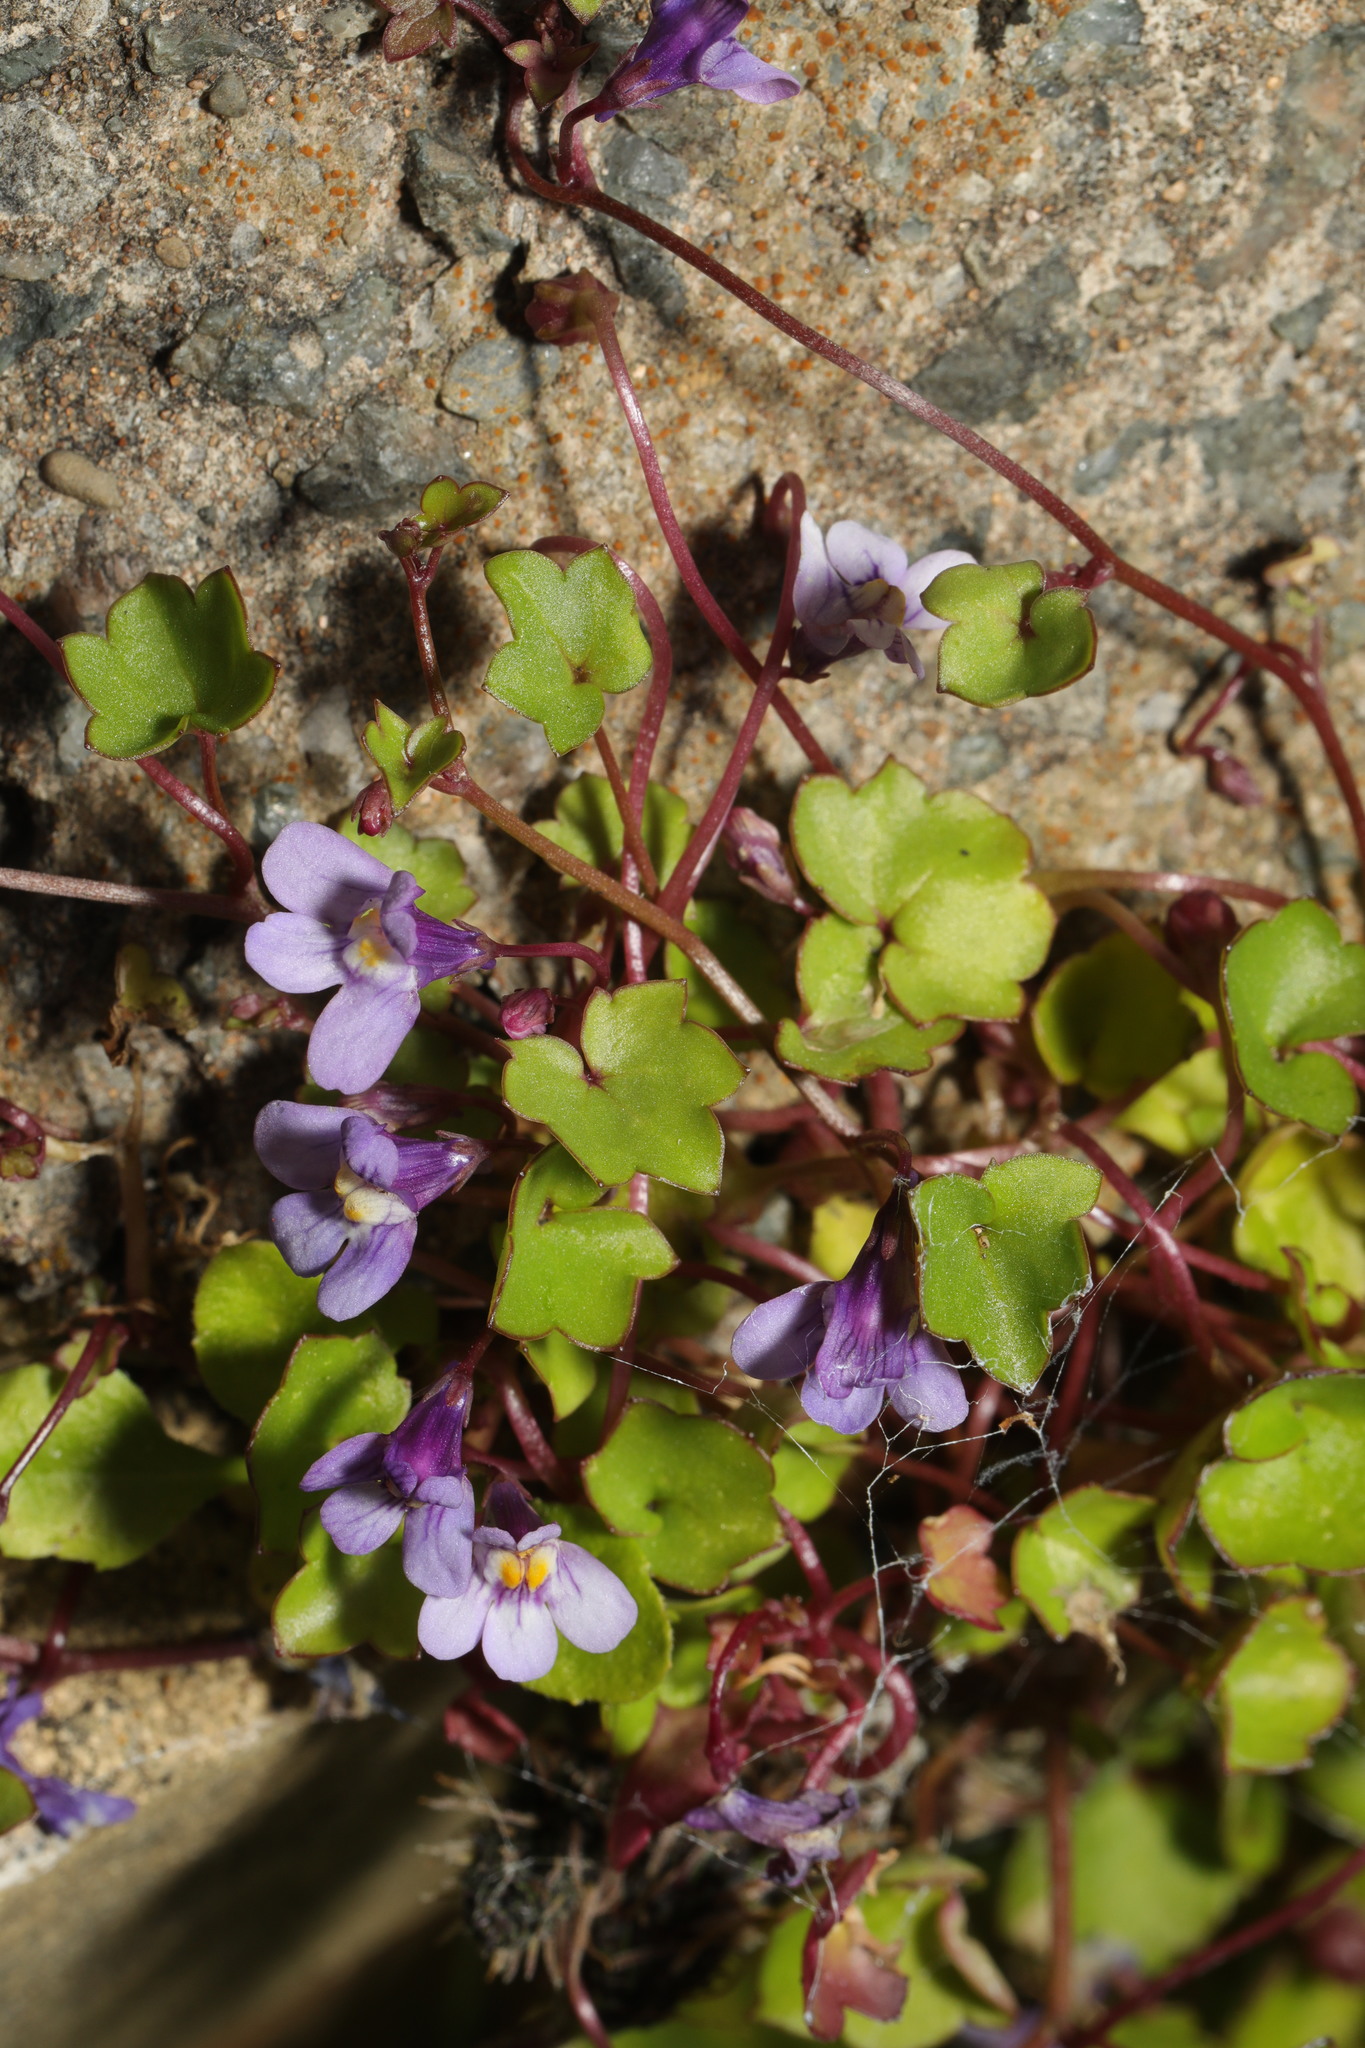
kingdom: Plantae
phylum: Tracheophyta
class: Magnoliopsida
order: Lamiales
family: Plantaginaceae
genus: Cymbalaria
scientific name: Cymbalaria muralis
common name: Ivy-leaved toadflax
